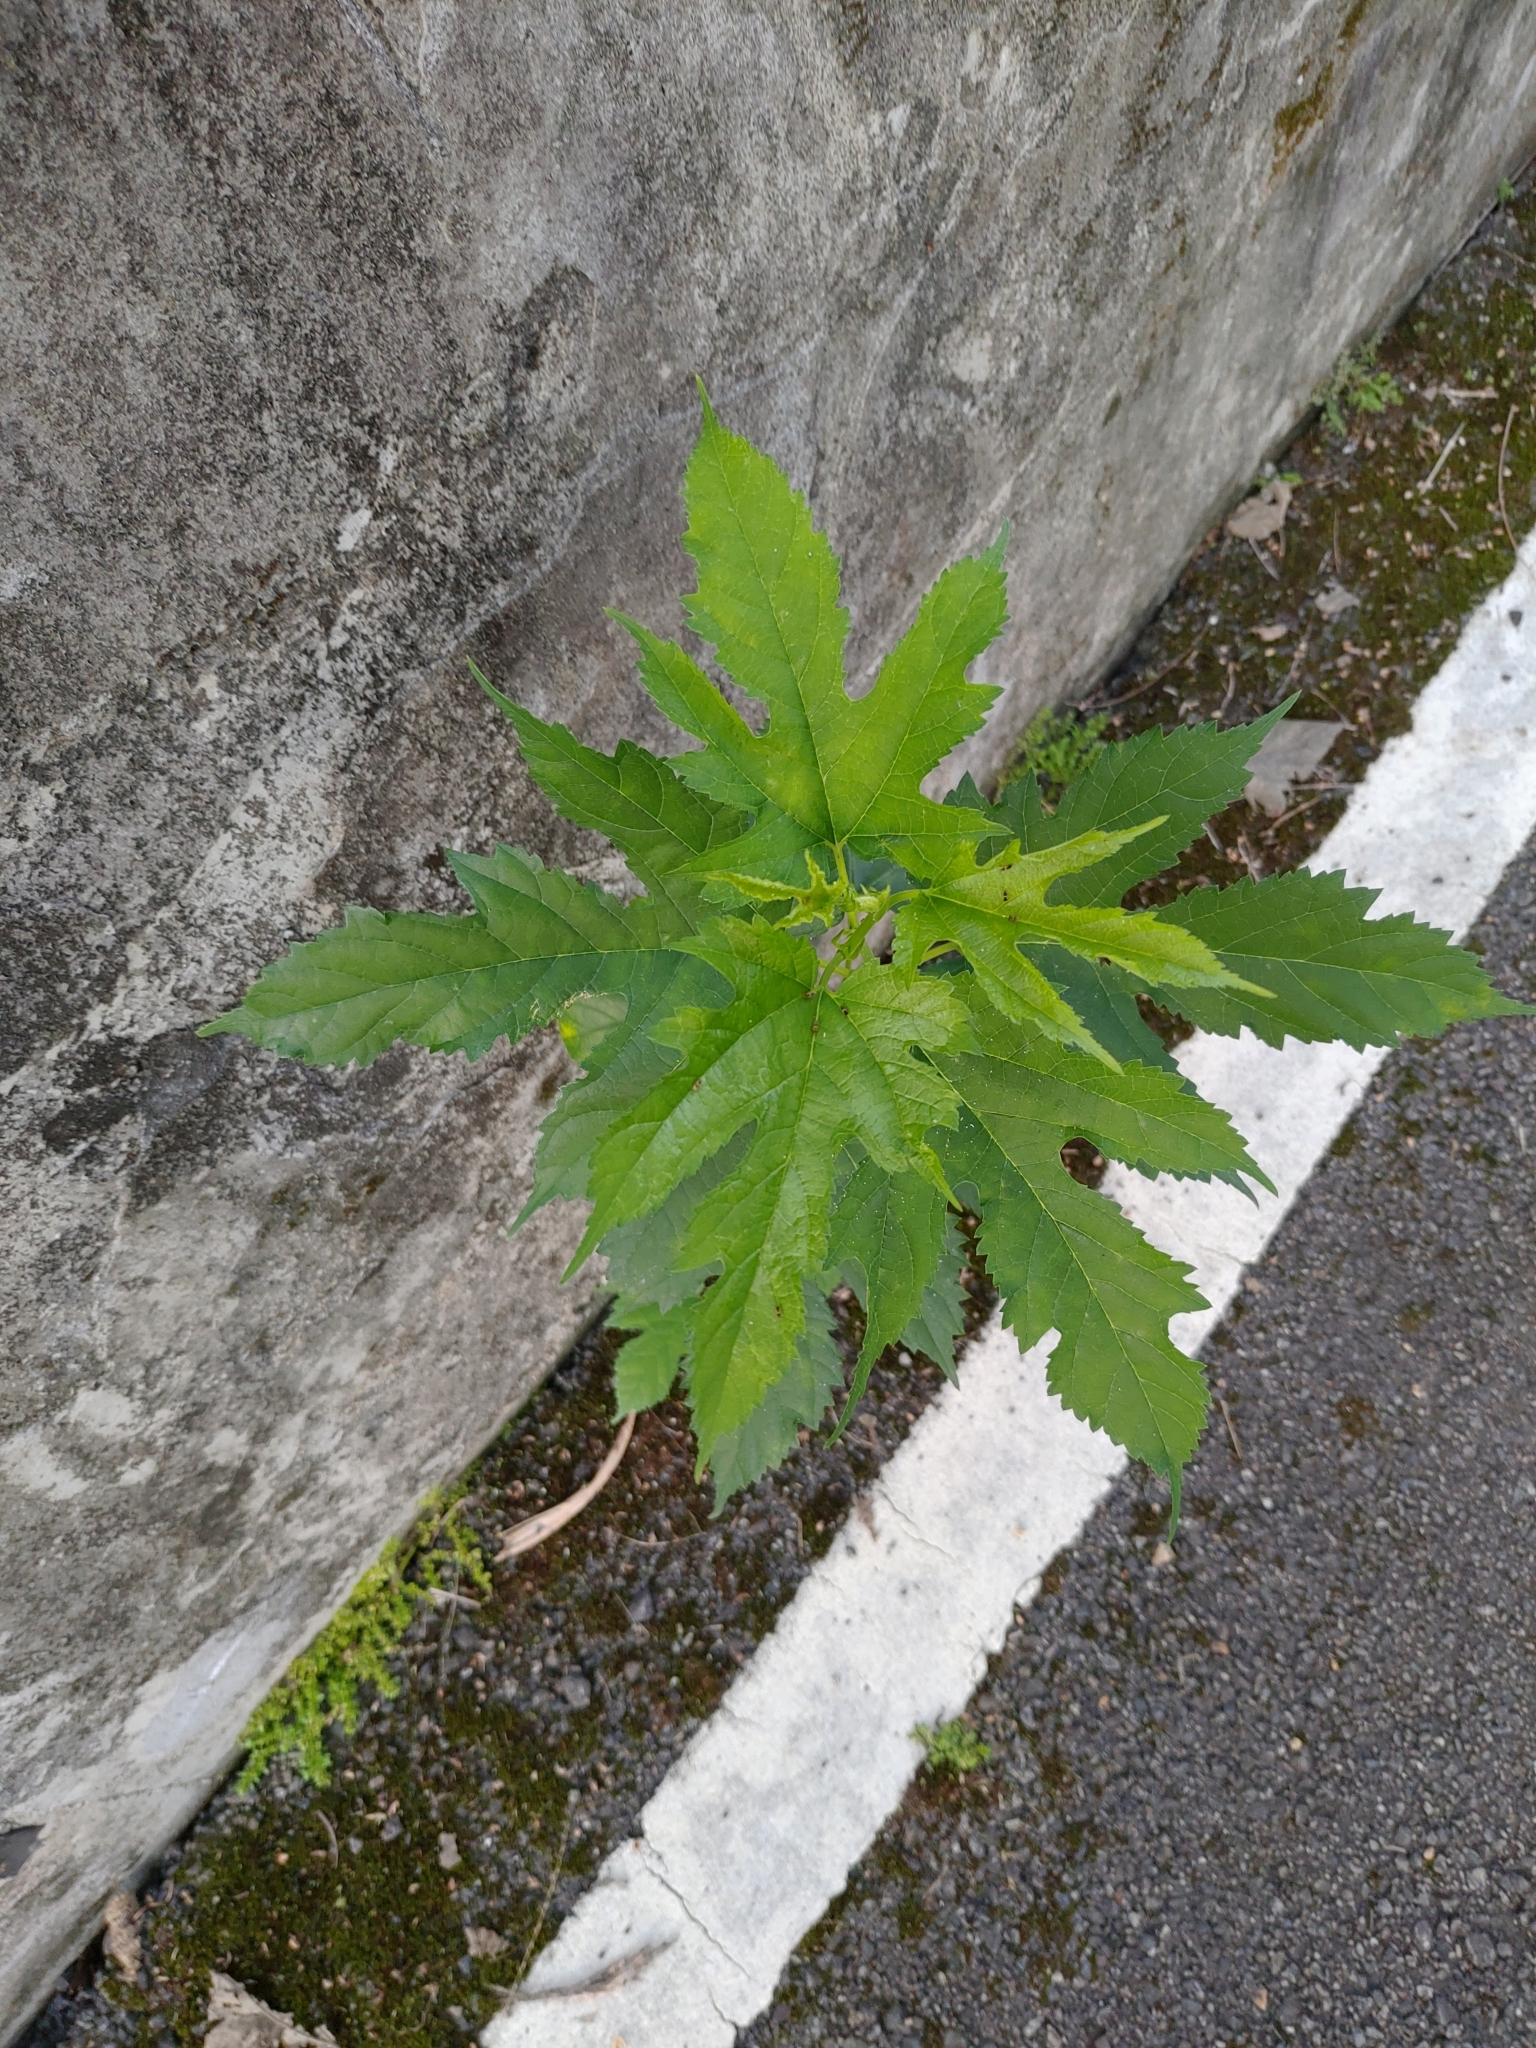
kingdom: Plantae
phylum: Tracheophyta
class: Magnoliopsida
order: Rosales
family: Moraceae
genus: Morus
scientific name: Morus indica
